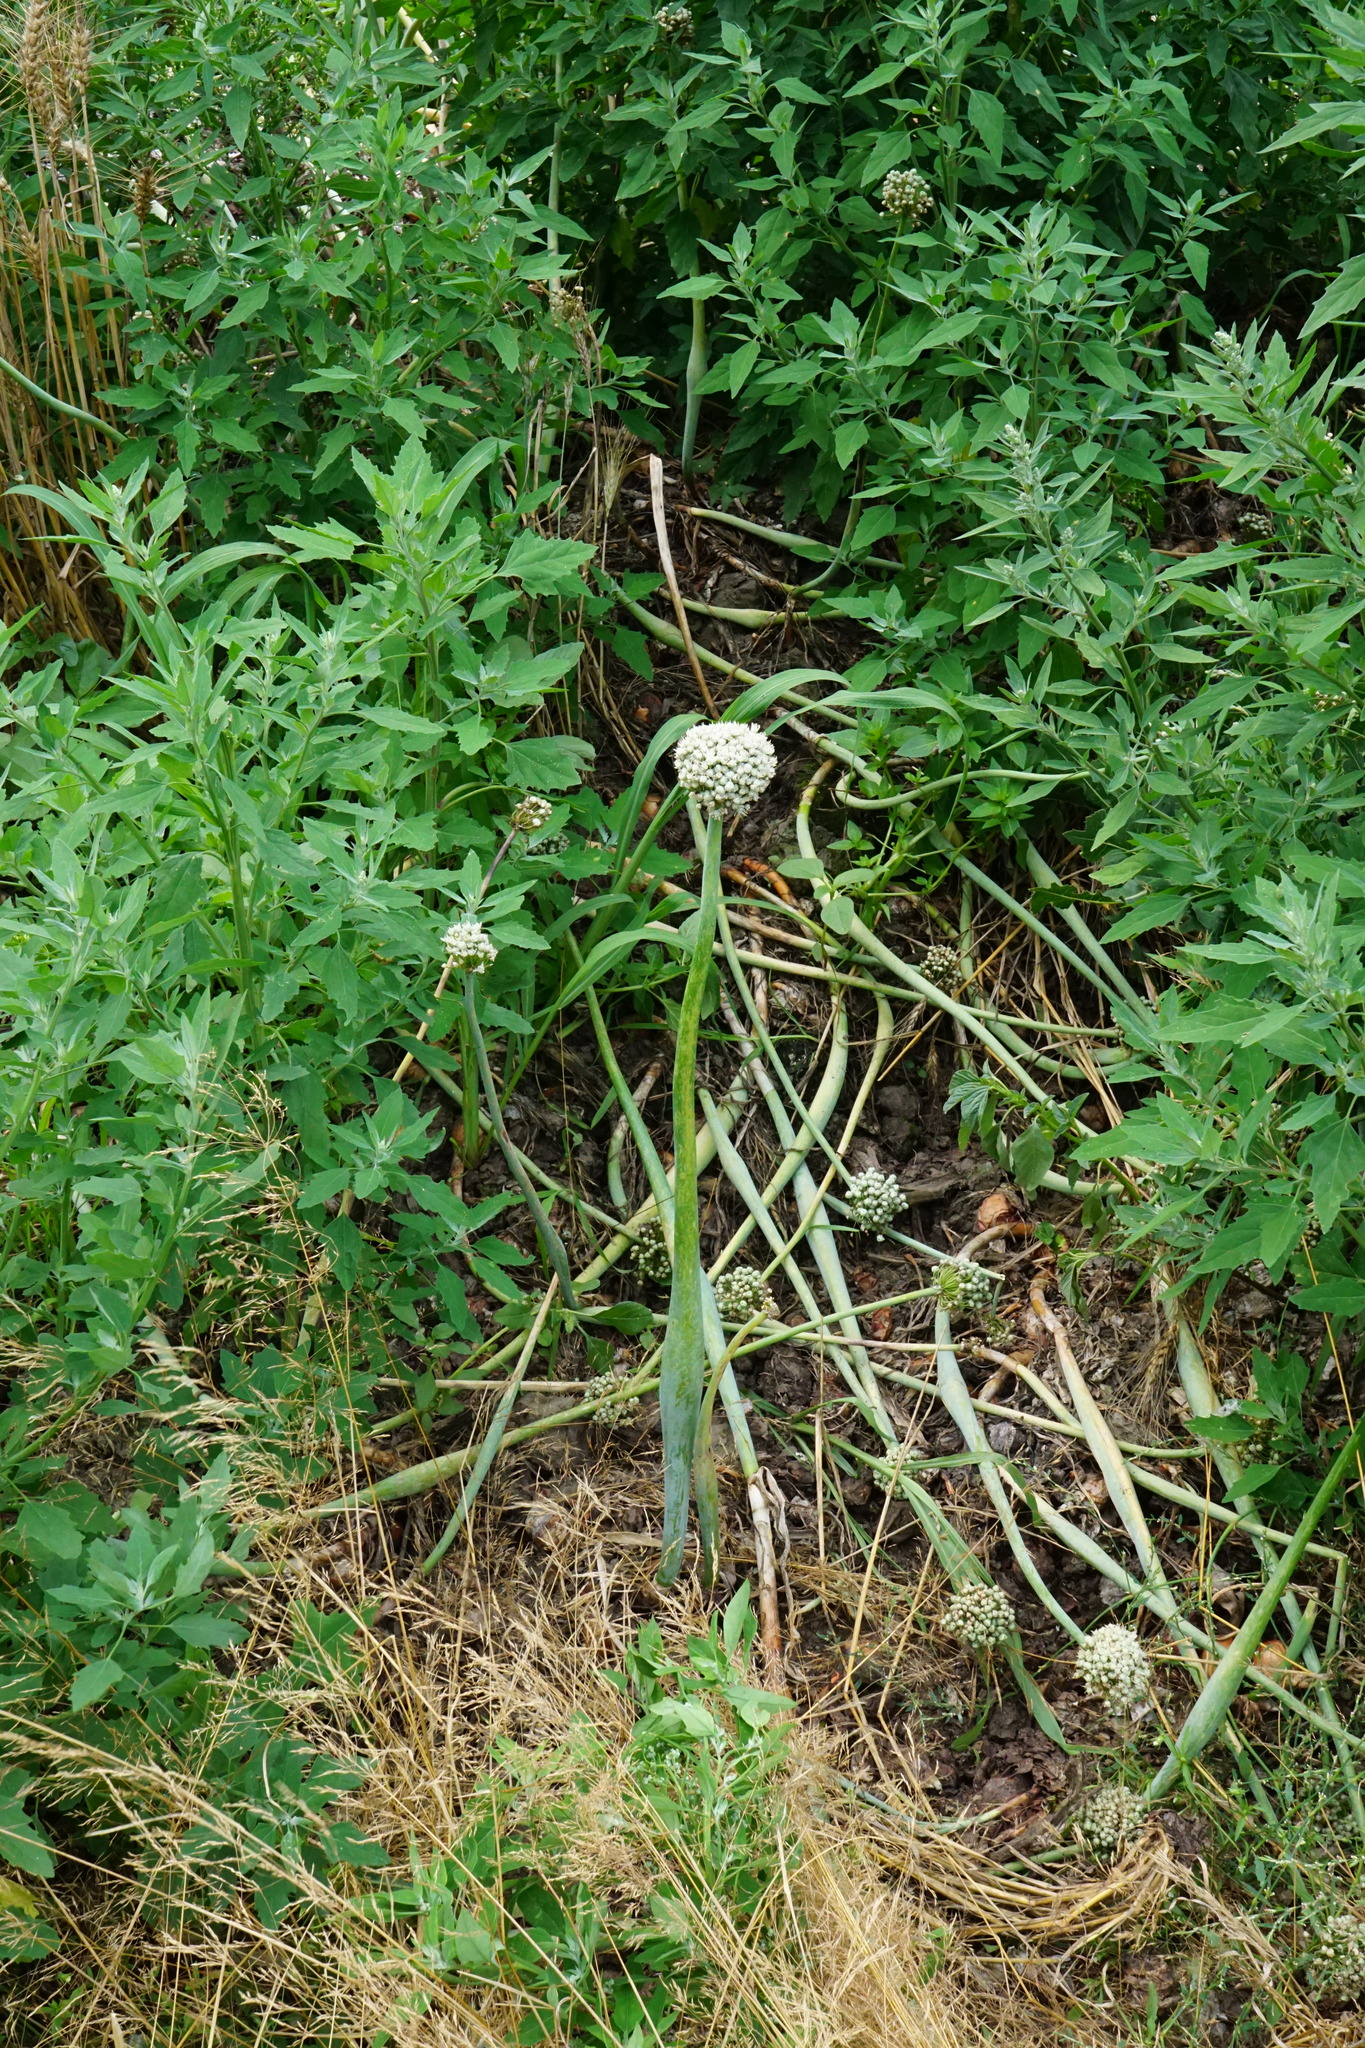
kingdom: Plantae
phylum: Tracheophyta
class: Liliopsida
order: Asparagales
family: Amaryllidaceae
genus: Allium
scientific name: Allium cepa
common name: Onion
